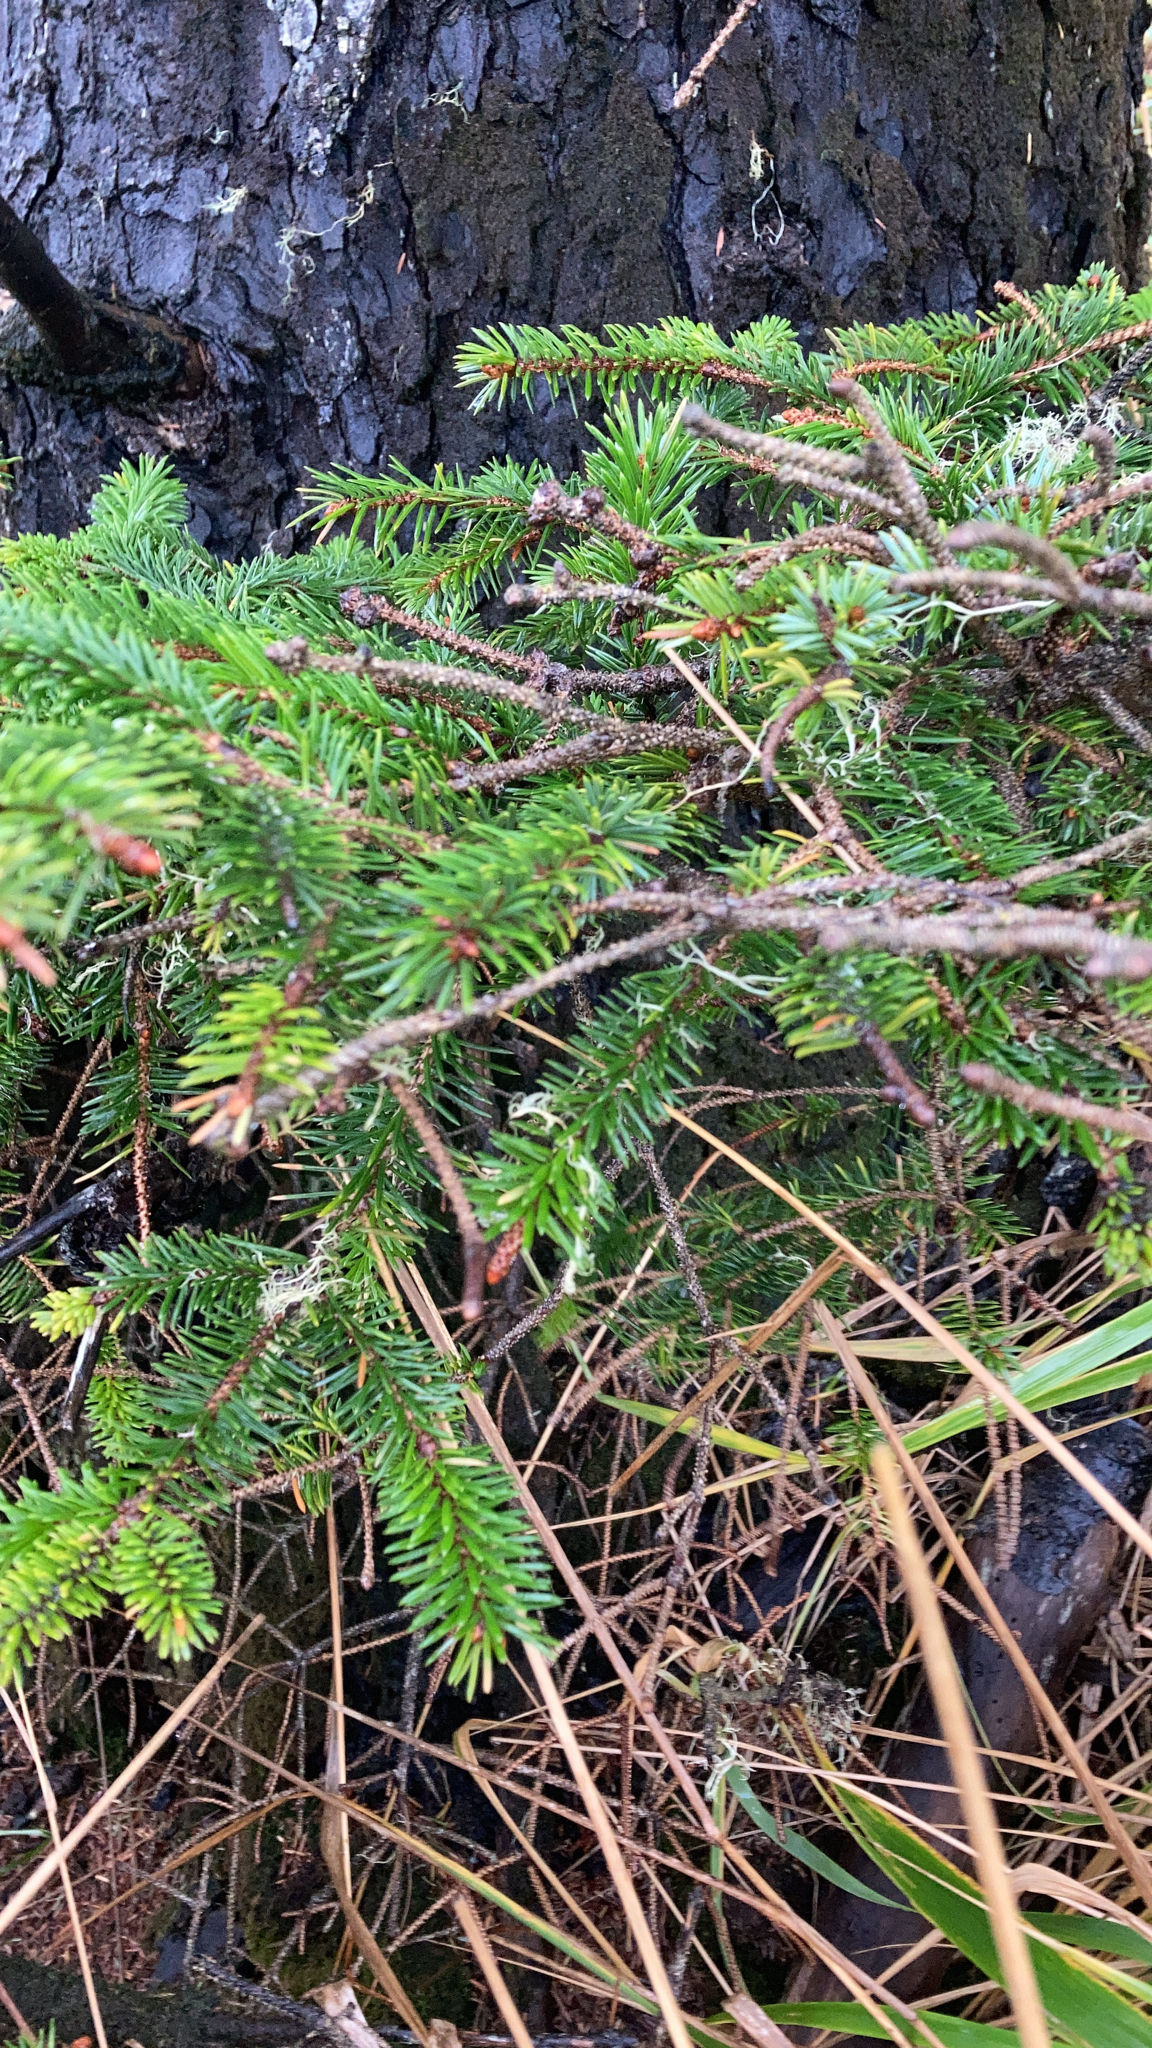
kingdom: Plantae
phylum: Tracheophyta
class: Pinopsida
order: Pinales
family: Pinaceae
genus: Picea
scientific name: Picea sitchensis
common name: Sitka spruce
